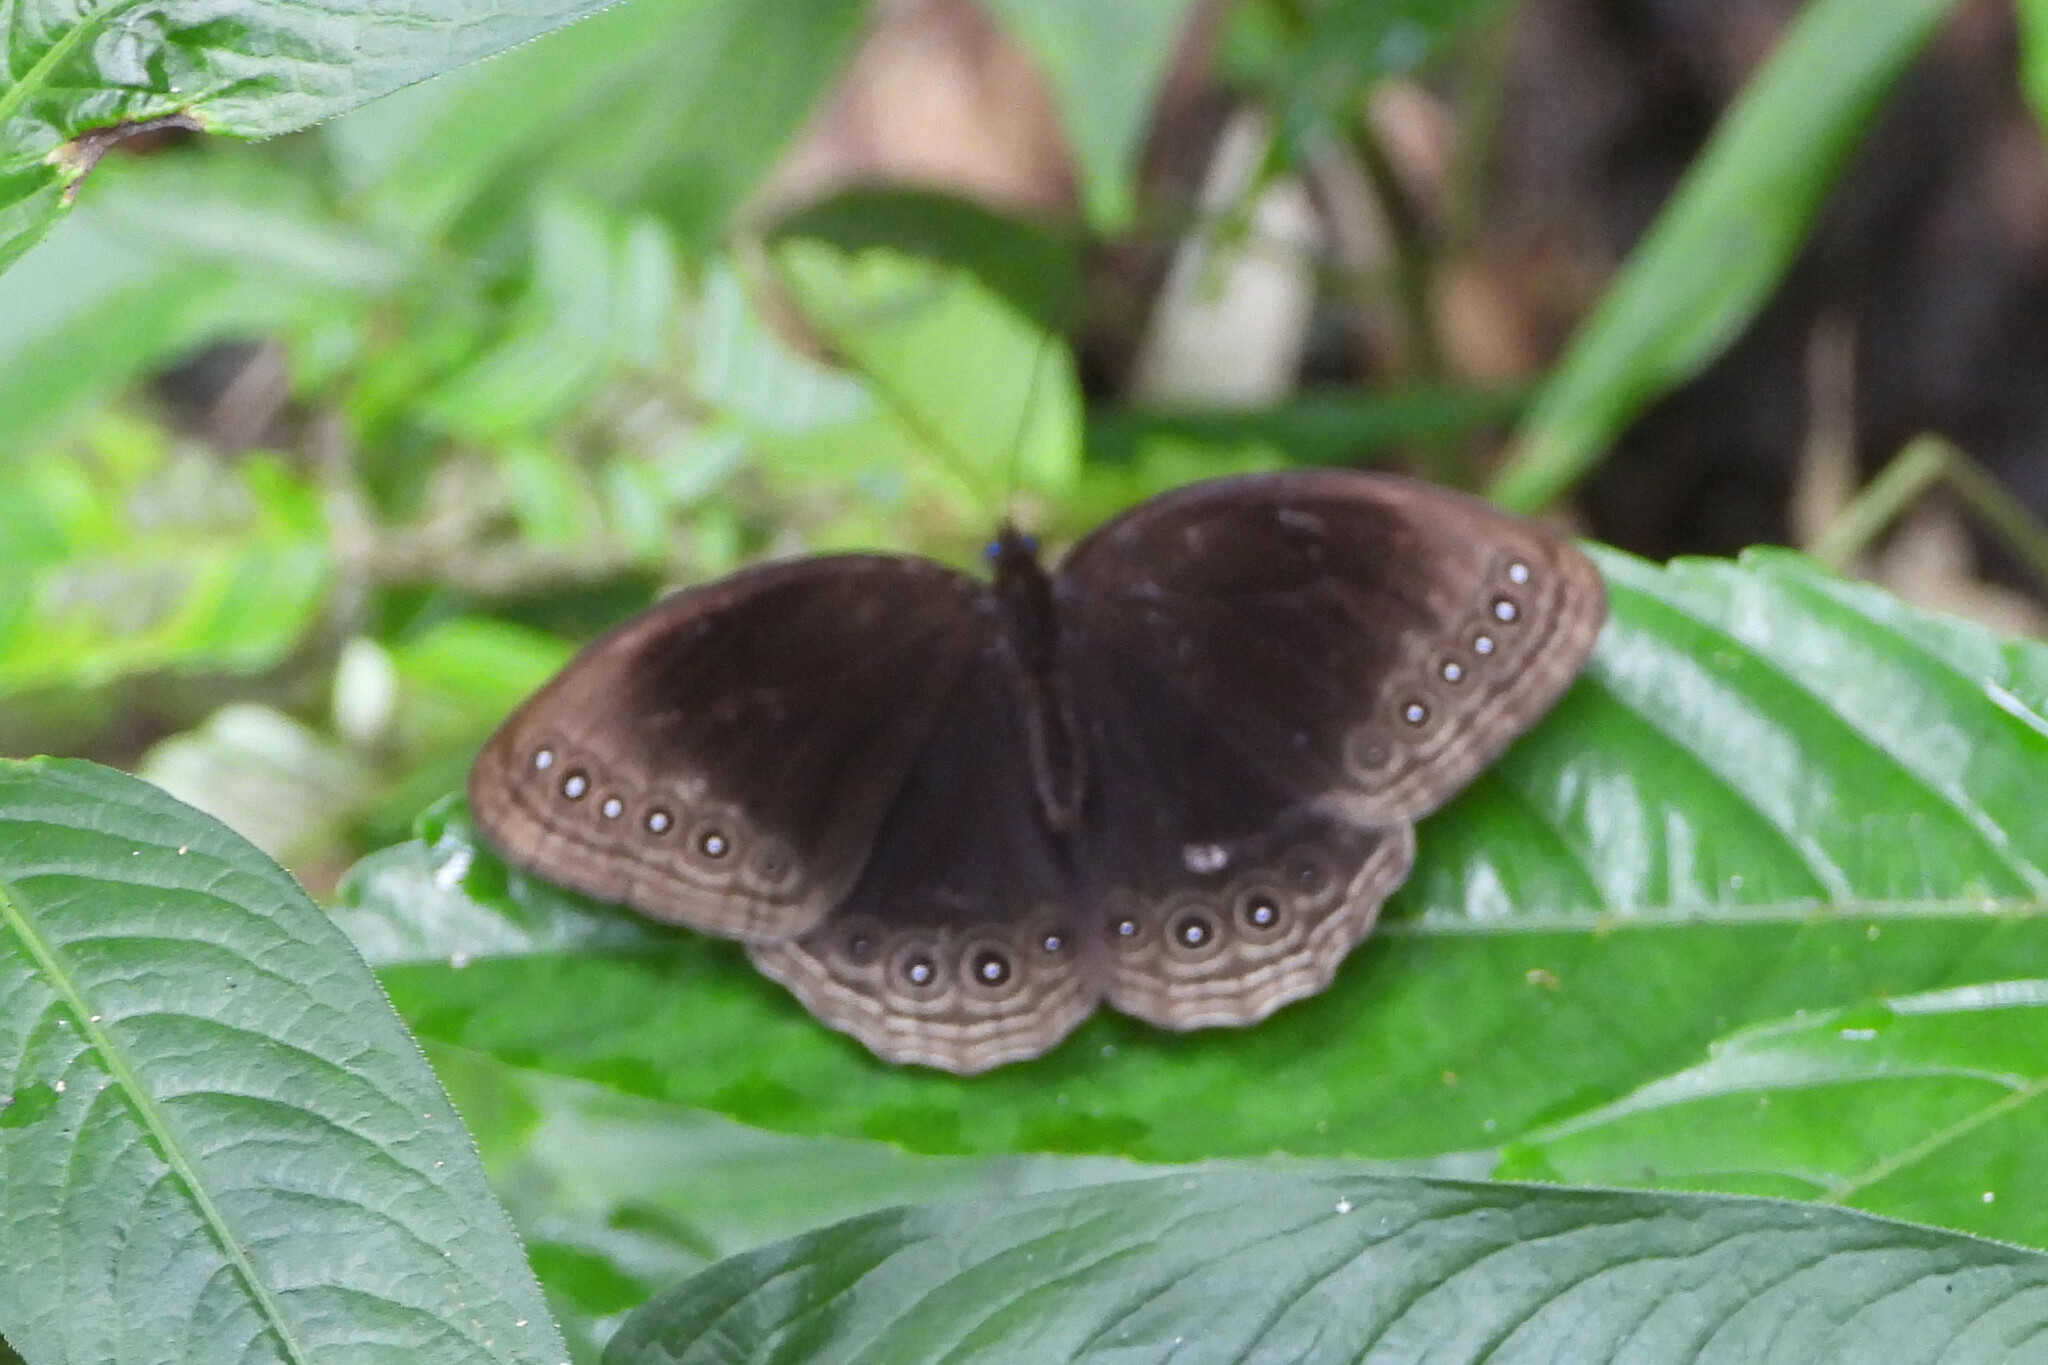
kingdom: Animalia
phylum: Arthropoda
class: Insecta
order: Lepidoptera
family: Nymphalidae
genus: Ethope
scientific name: Ethope himachala
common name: Dusky diadem
